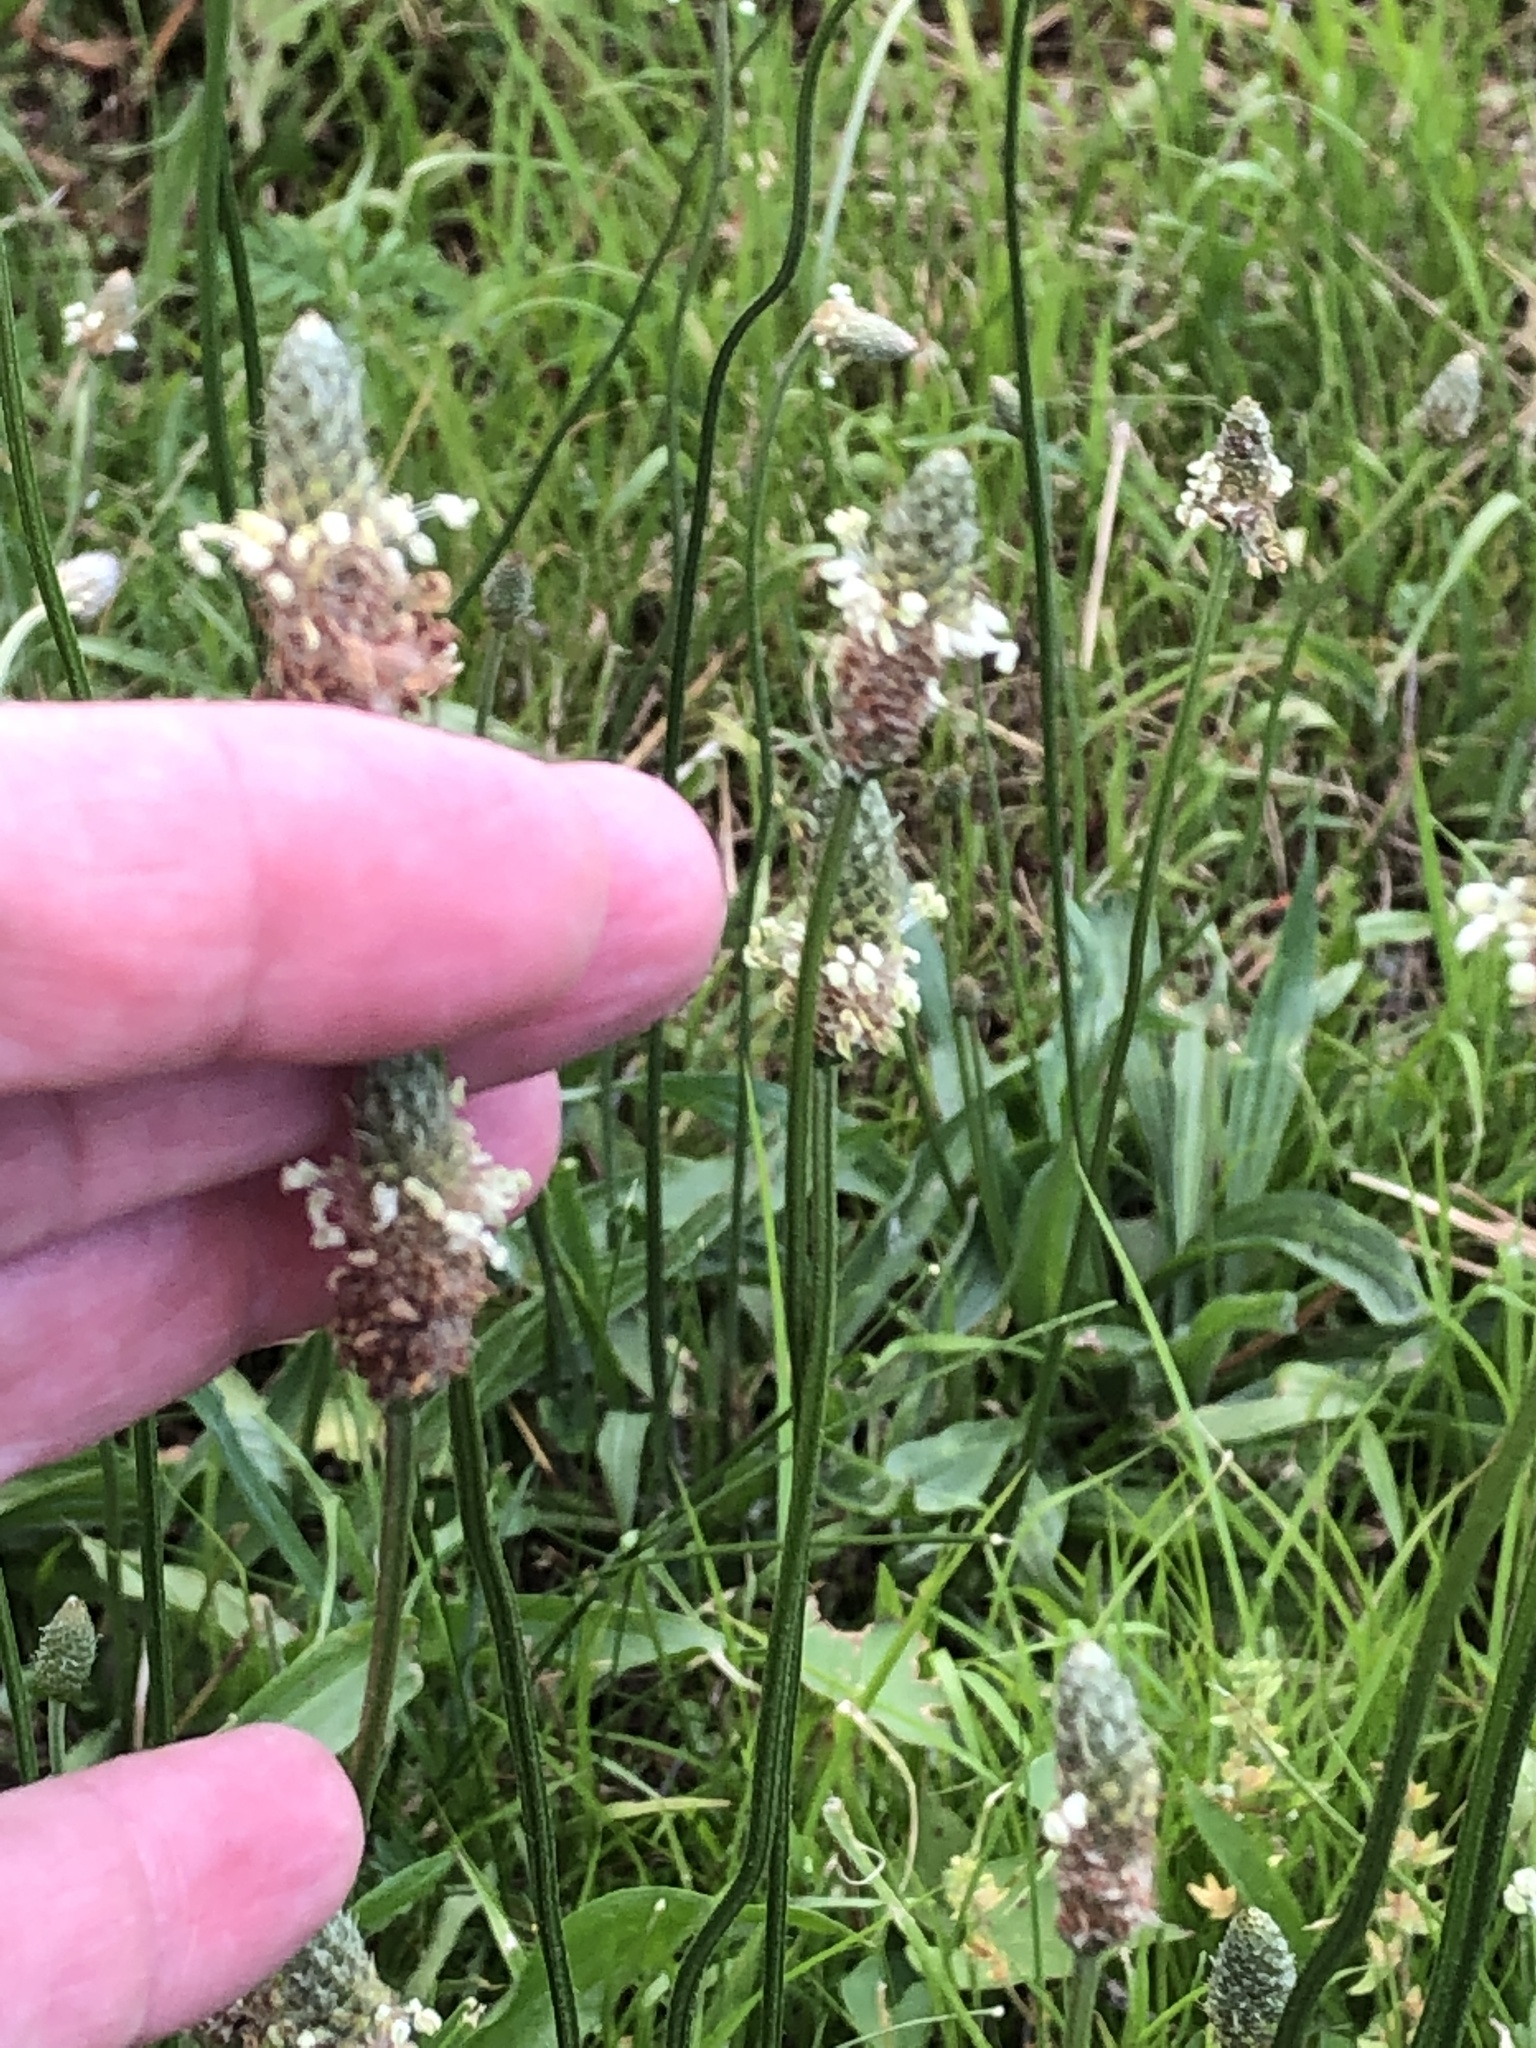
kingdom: Plantae
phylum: Tracheophyta
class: Magnoliopsida
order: Lamiales
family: Plantaginaceae
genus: Plantago
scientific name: Plantago lanceolata
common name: Ribwort plantain
